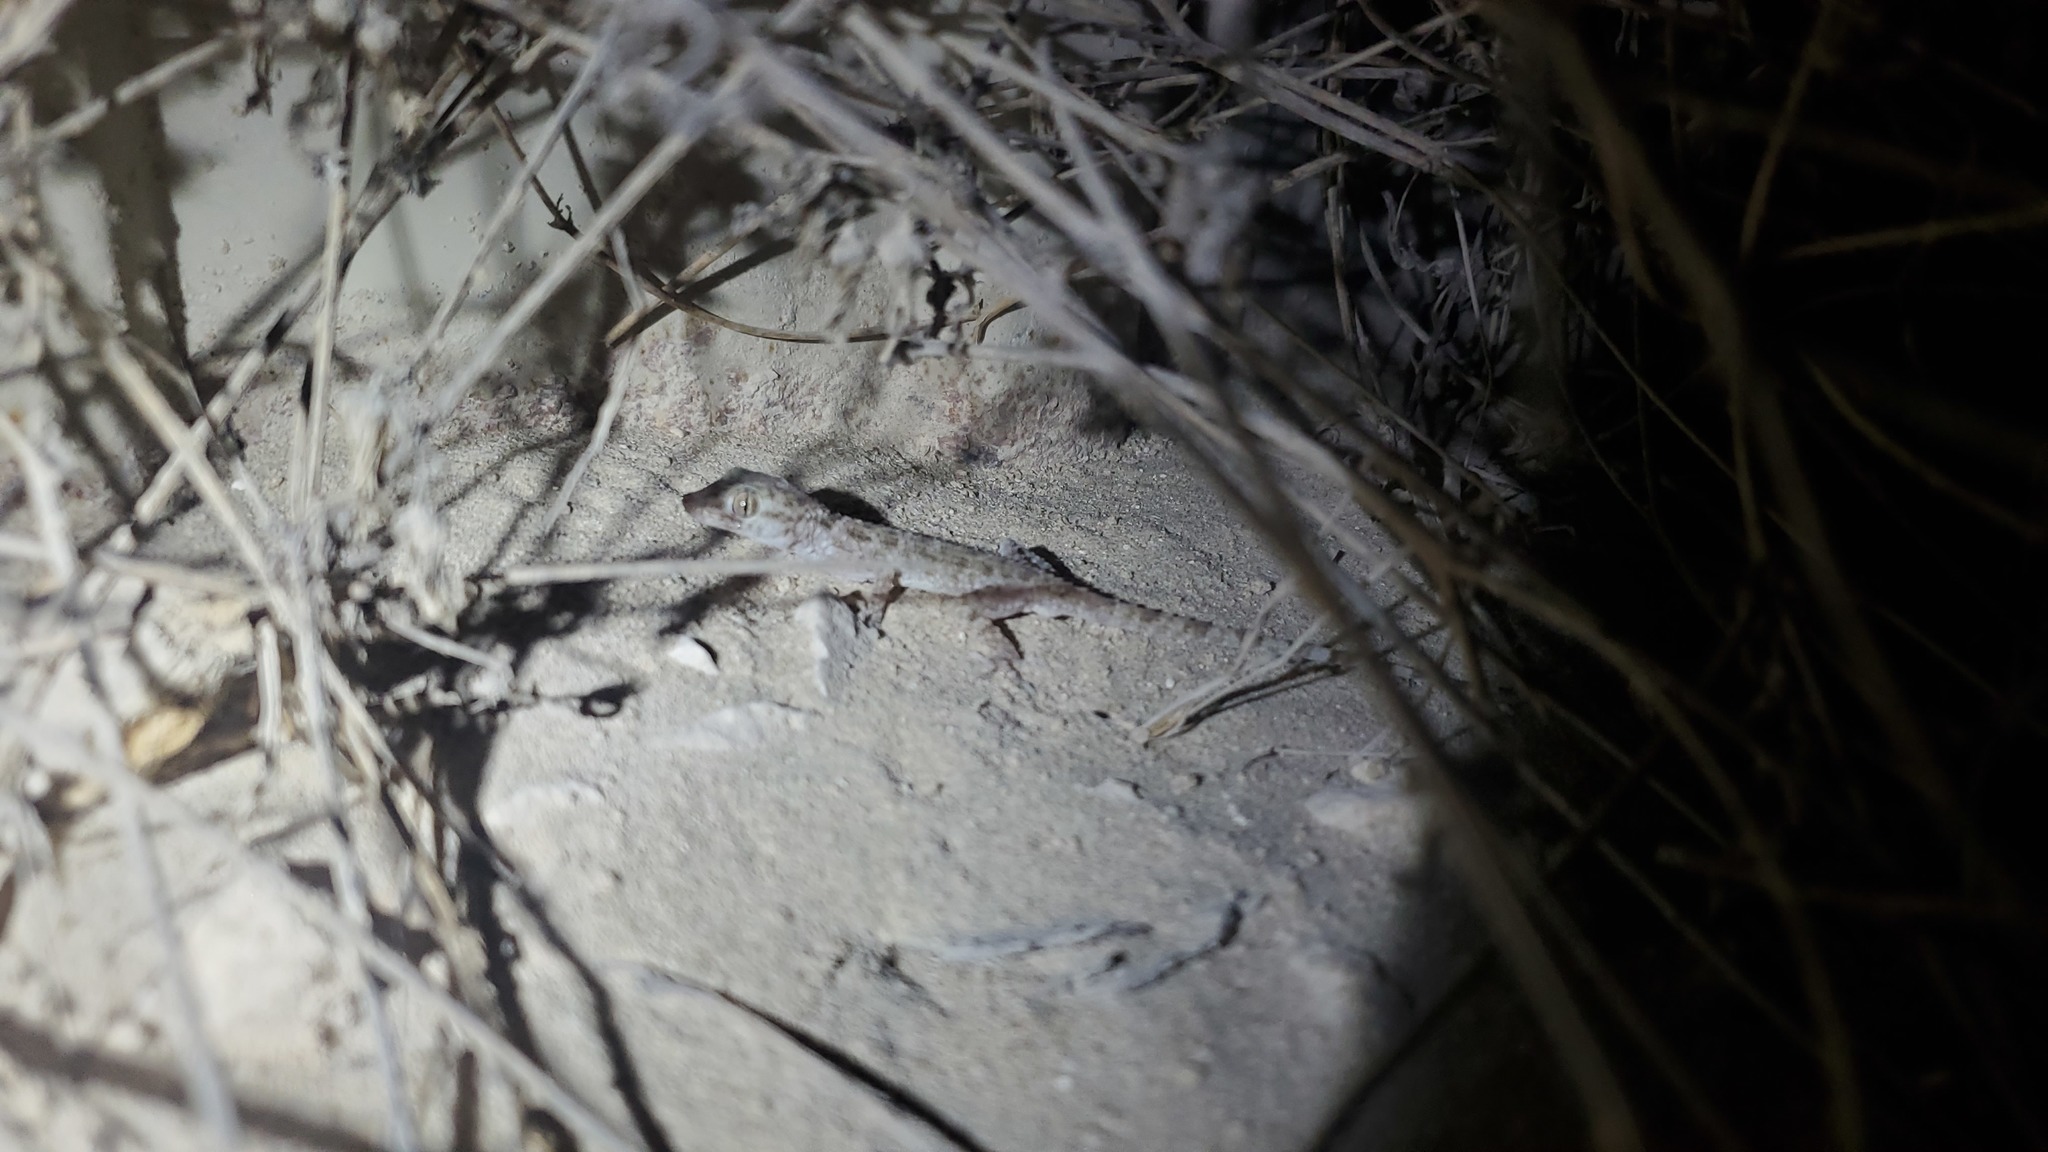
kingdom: Animalia
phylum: Chordata
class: Squamata
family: Gekkonidae
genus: Cyrtopodion
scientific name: Cyrtopodion scabrum
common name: Rough-tailed gecko
